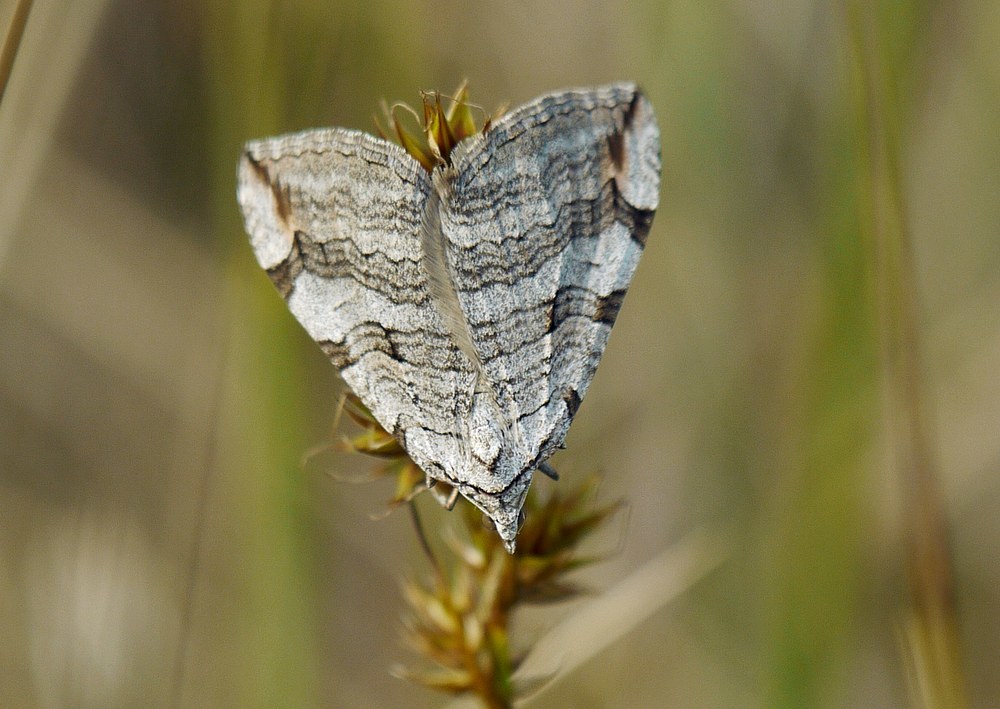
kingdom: Animalia
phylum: Arthropoda
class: Insecta
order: Lepidoptera
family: Geometridae
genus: Aplocera
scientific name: Aplocera plagiata
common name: Treble-bar
